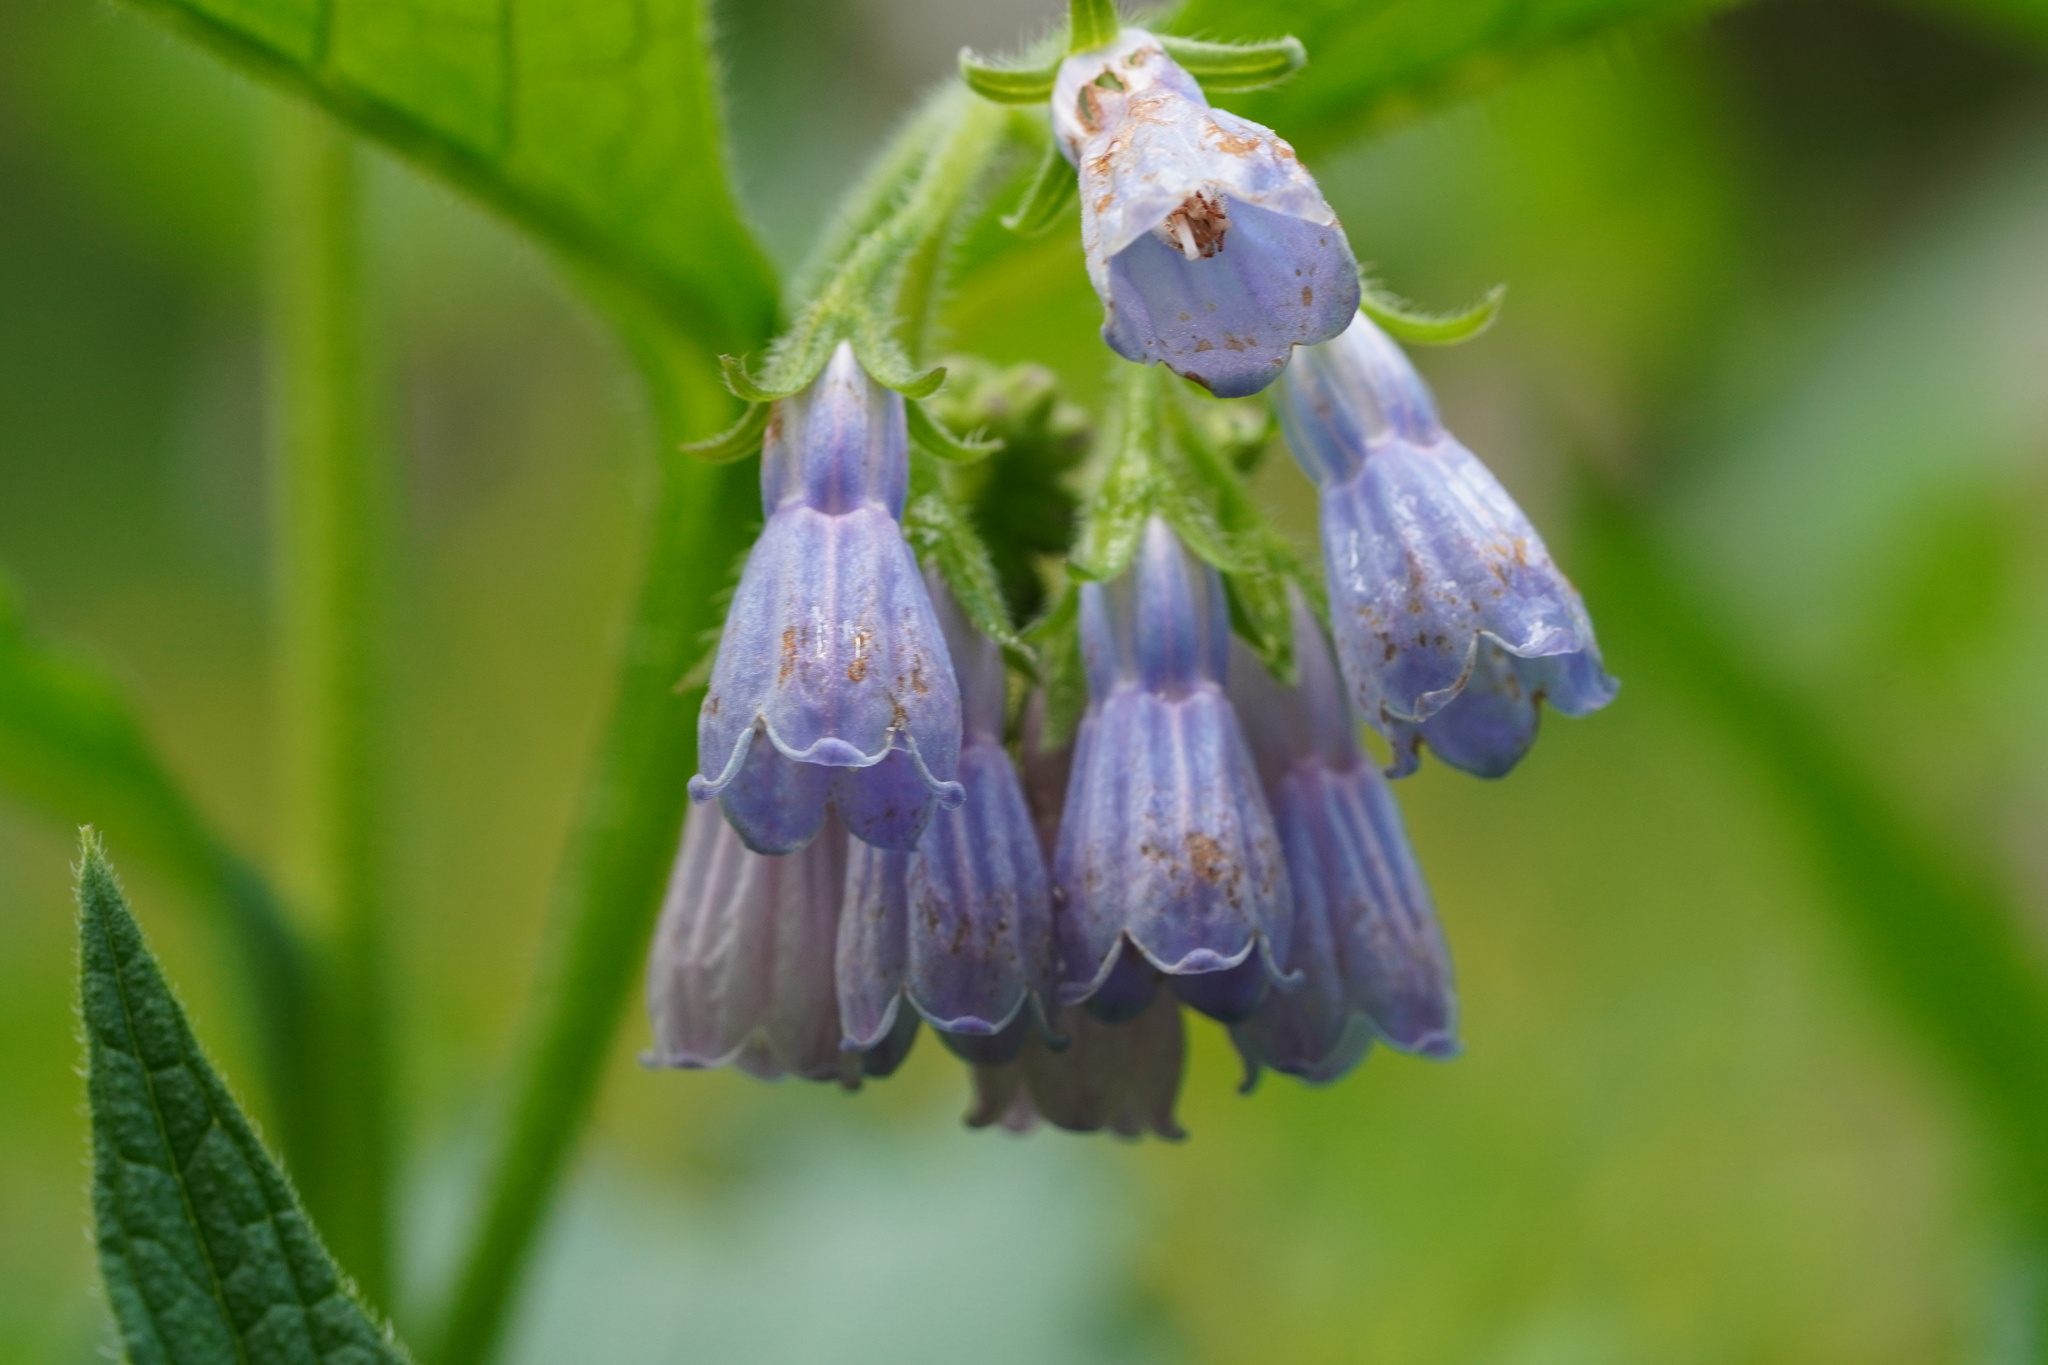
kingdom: Plantae
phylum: Tracheophyta
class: Magnoliopsida
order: Boraginales
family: Boraginaceae
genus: Symphytum
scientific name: Symphytum officinale
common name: Common comfrey
